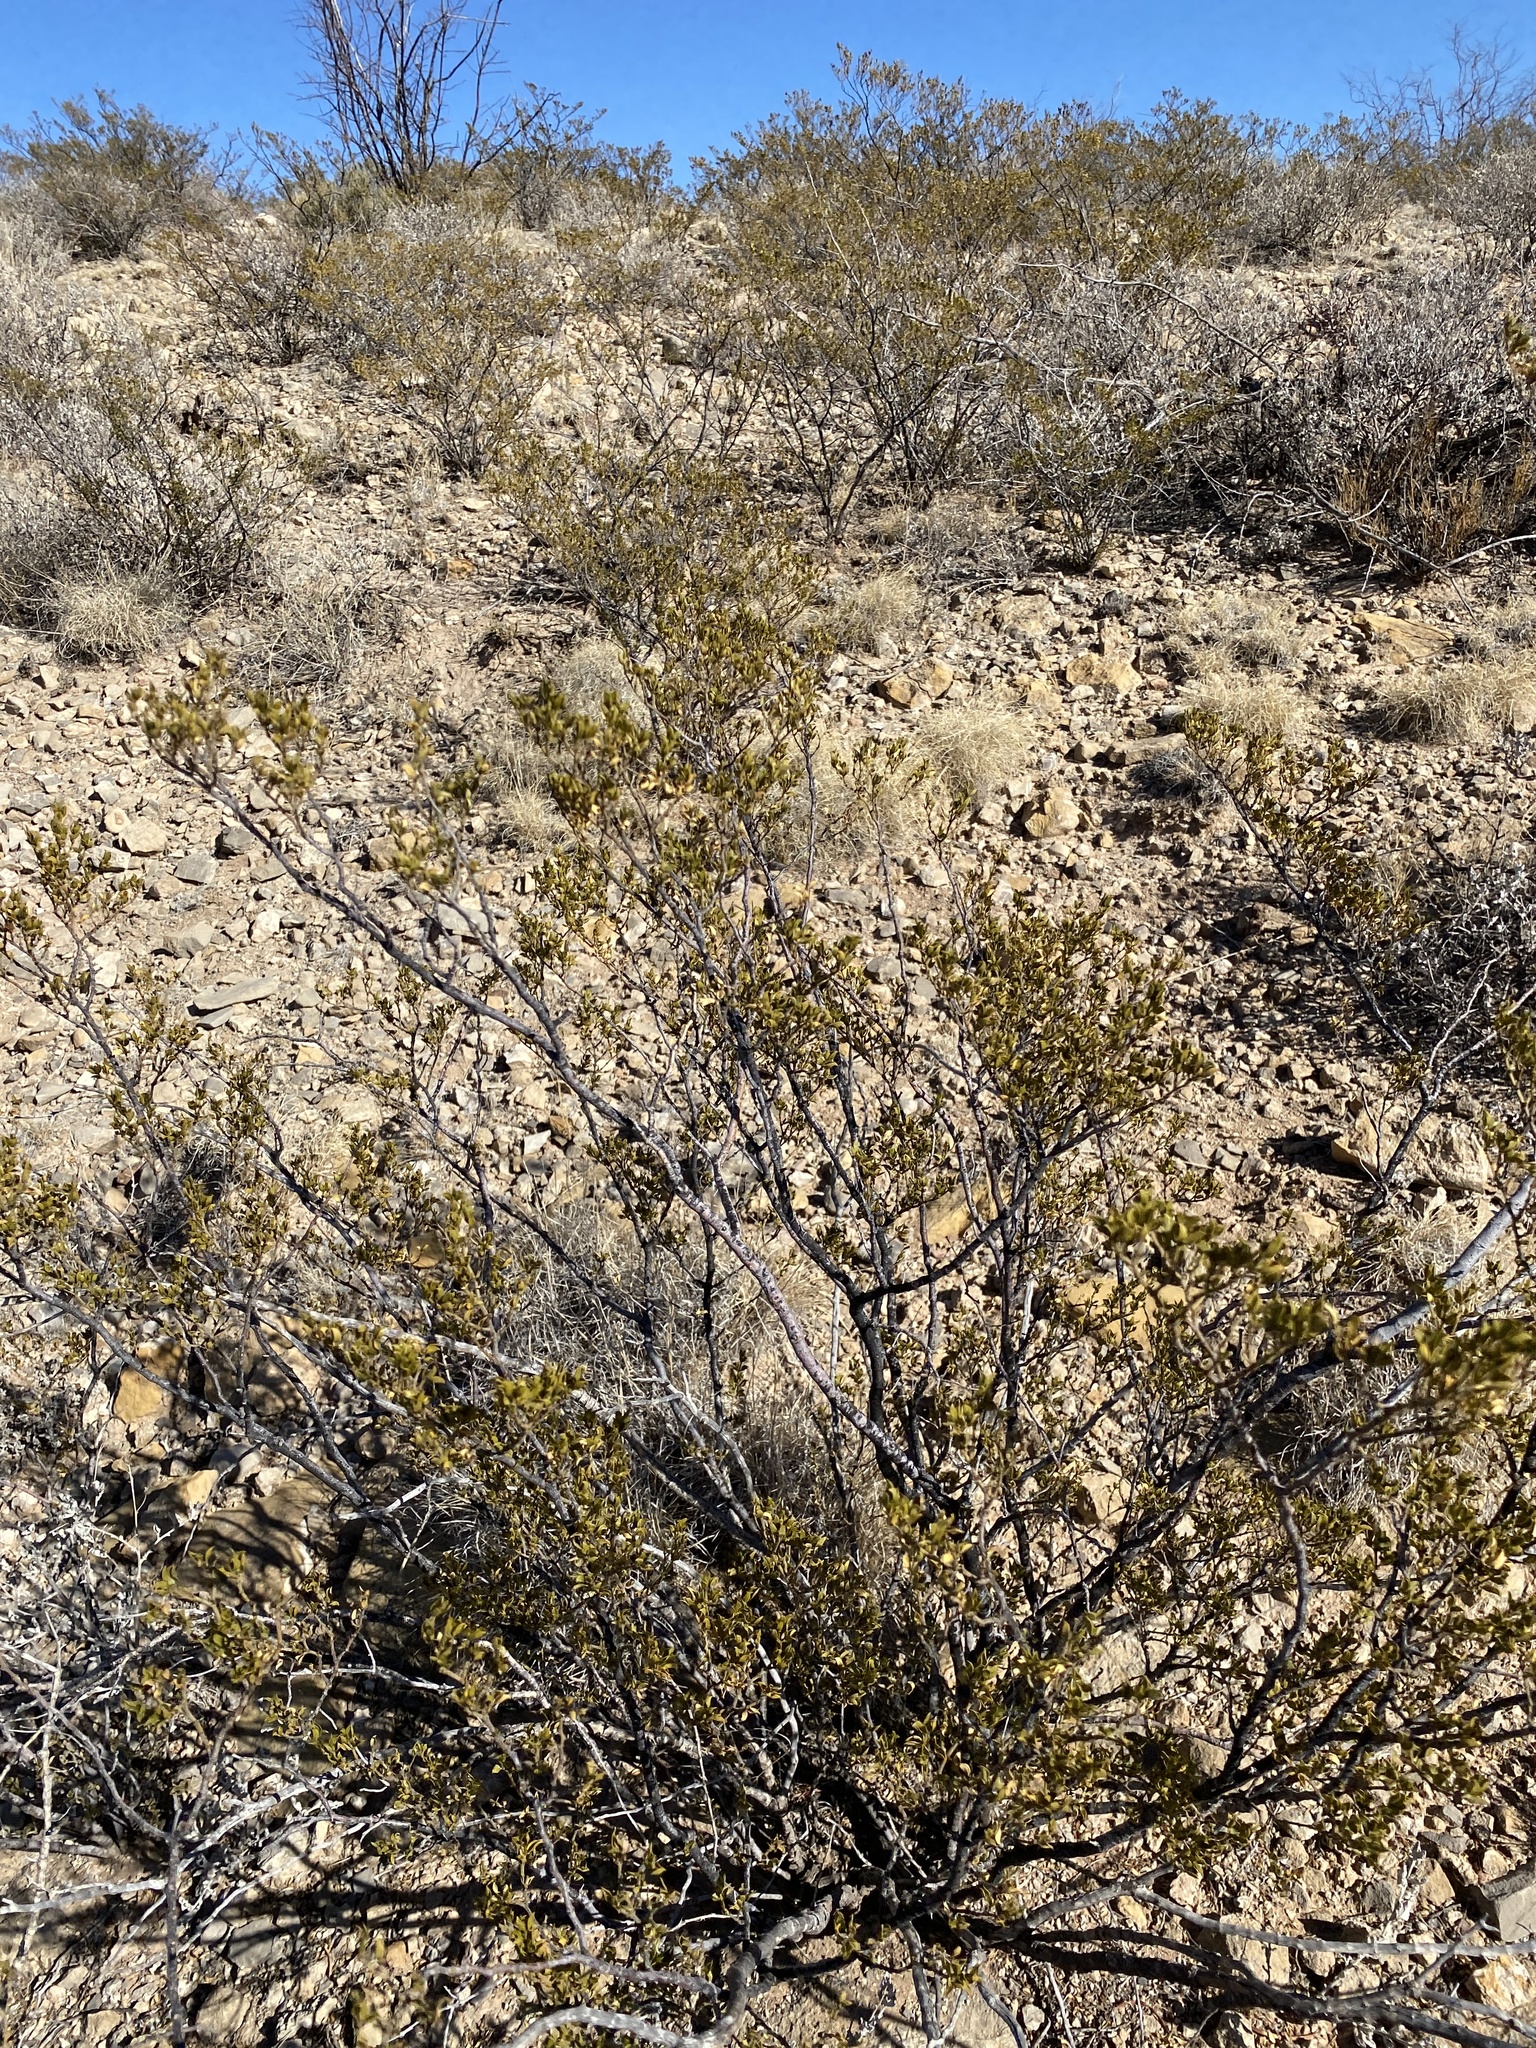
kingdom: Plantae
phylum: Tracheophyta
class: Magnoliopsida
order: Zygophyllales
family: Zygophyllaceae
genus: Larrea
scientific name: Larrea tridentata
